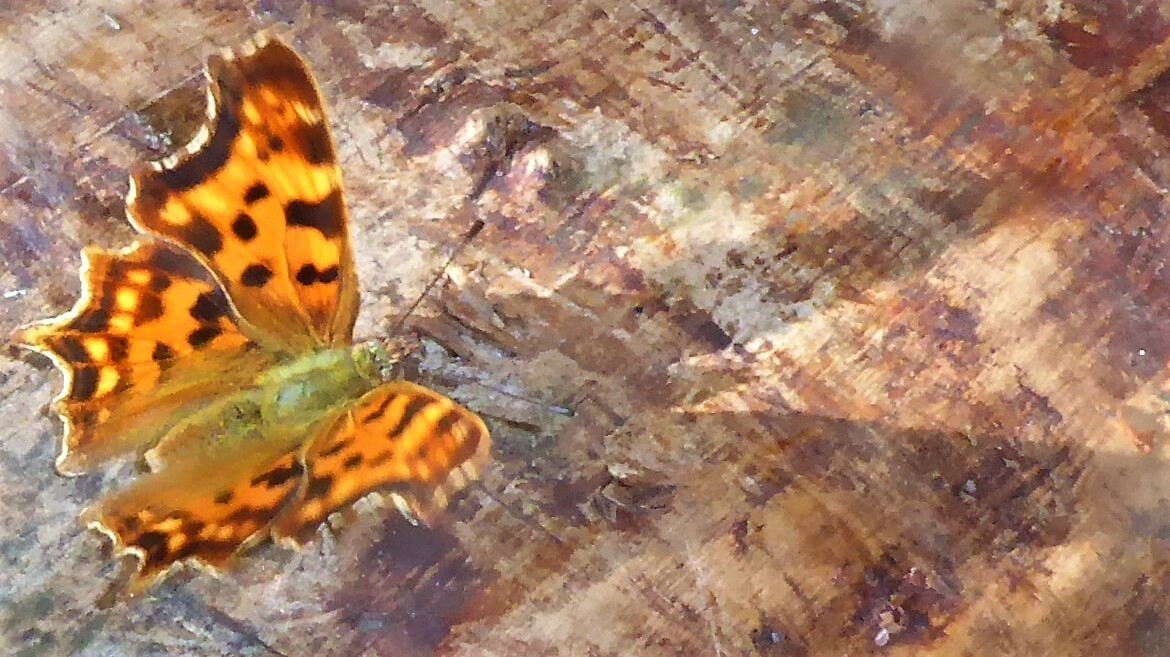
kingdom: Animalia
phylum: Arthropoda
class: Insecta
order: Lepidoptera
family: Nymphalidae
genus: Polygonia
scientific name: Polygonia c-album
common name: Comma
